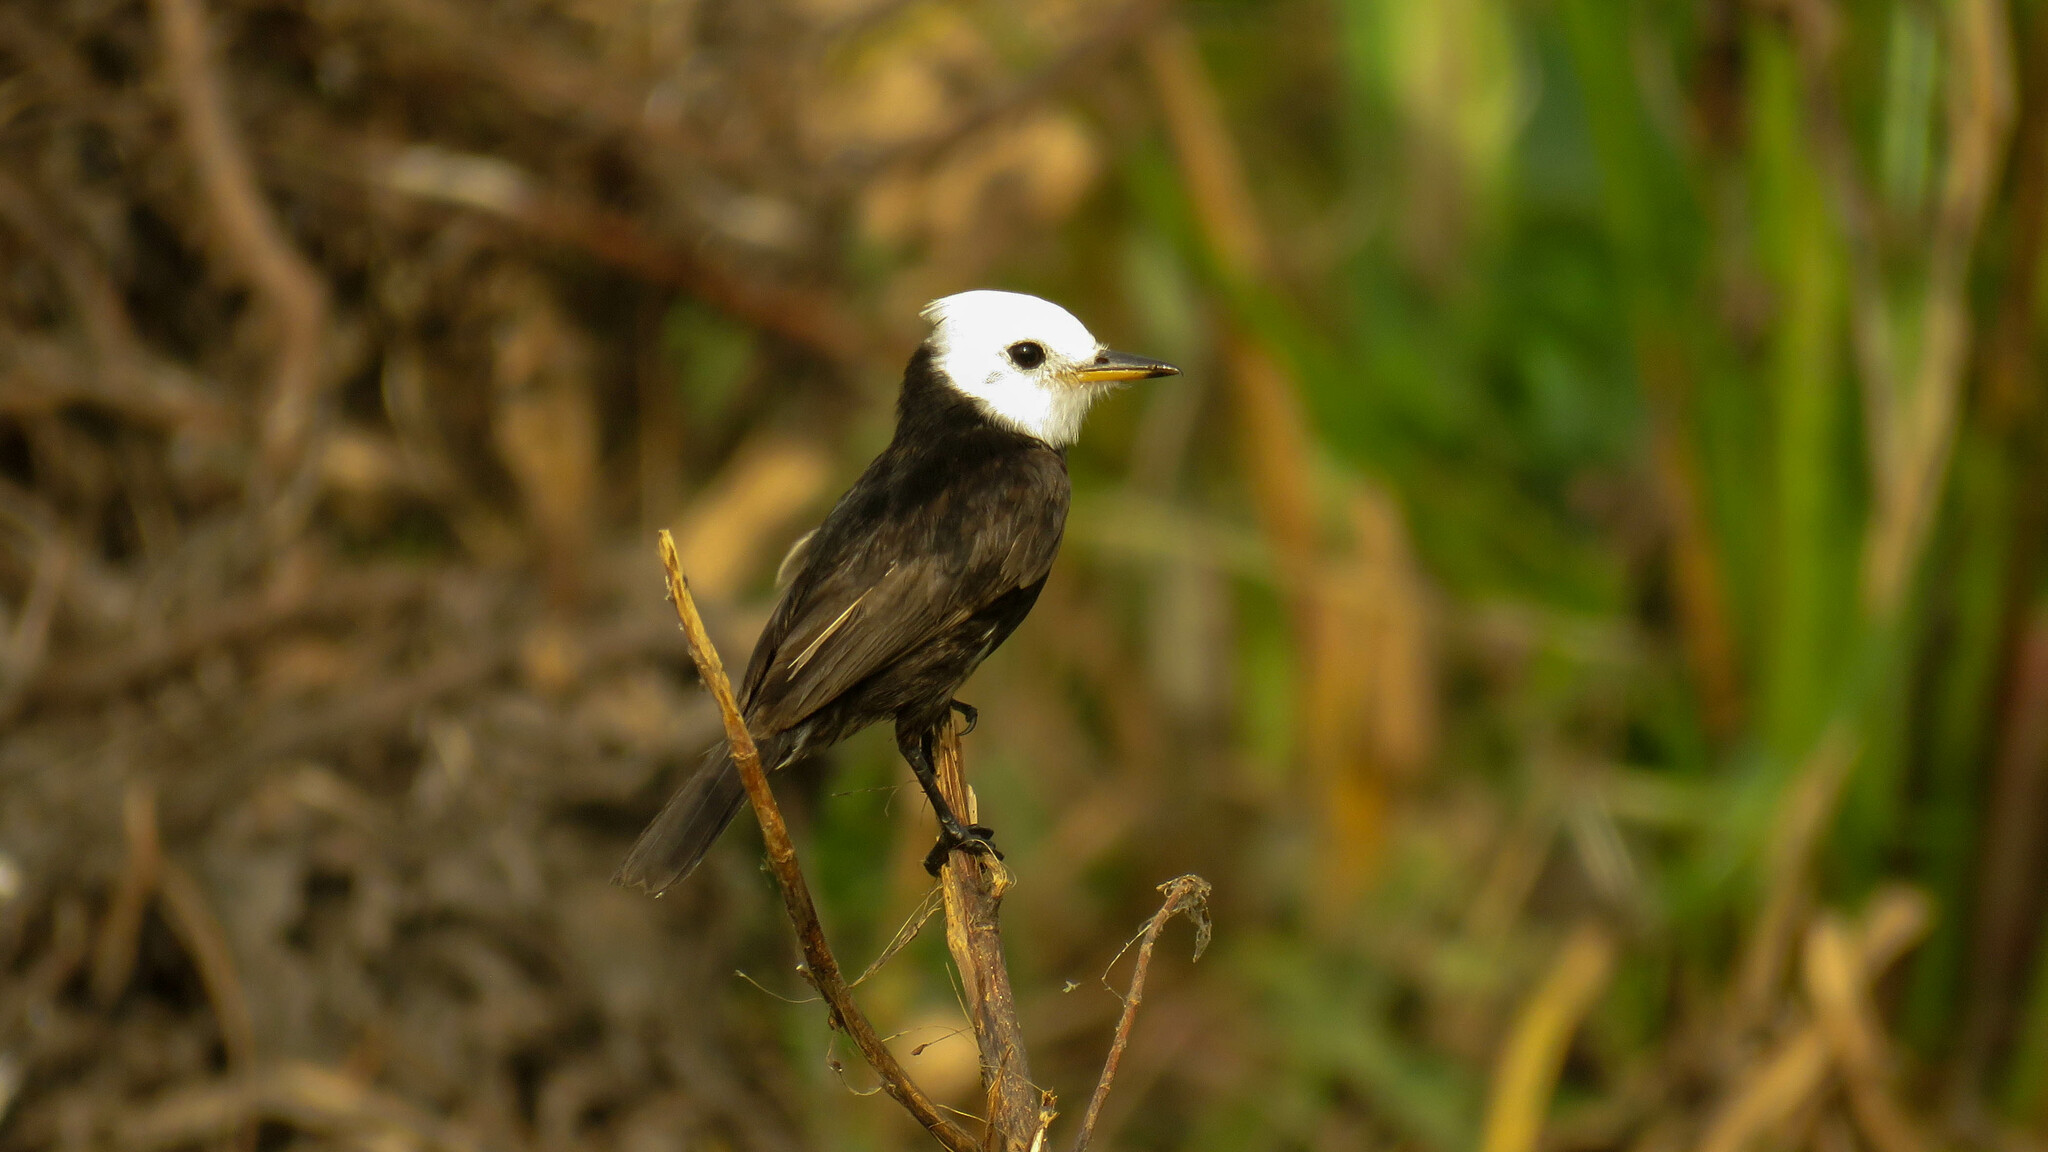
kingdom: Animalia
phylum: Chordata
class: Aves
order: Passeriformes
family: Tyrannidae
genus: Arundinicola
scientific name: Arundinicola leucocephala
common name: White-headed marsh tyrant
